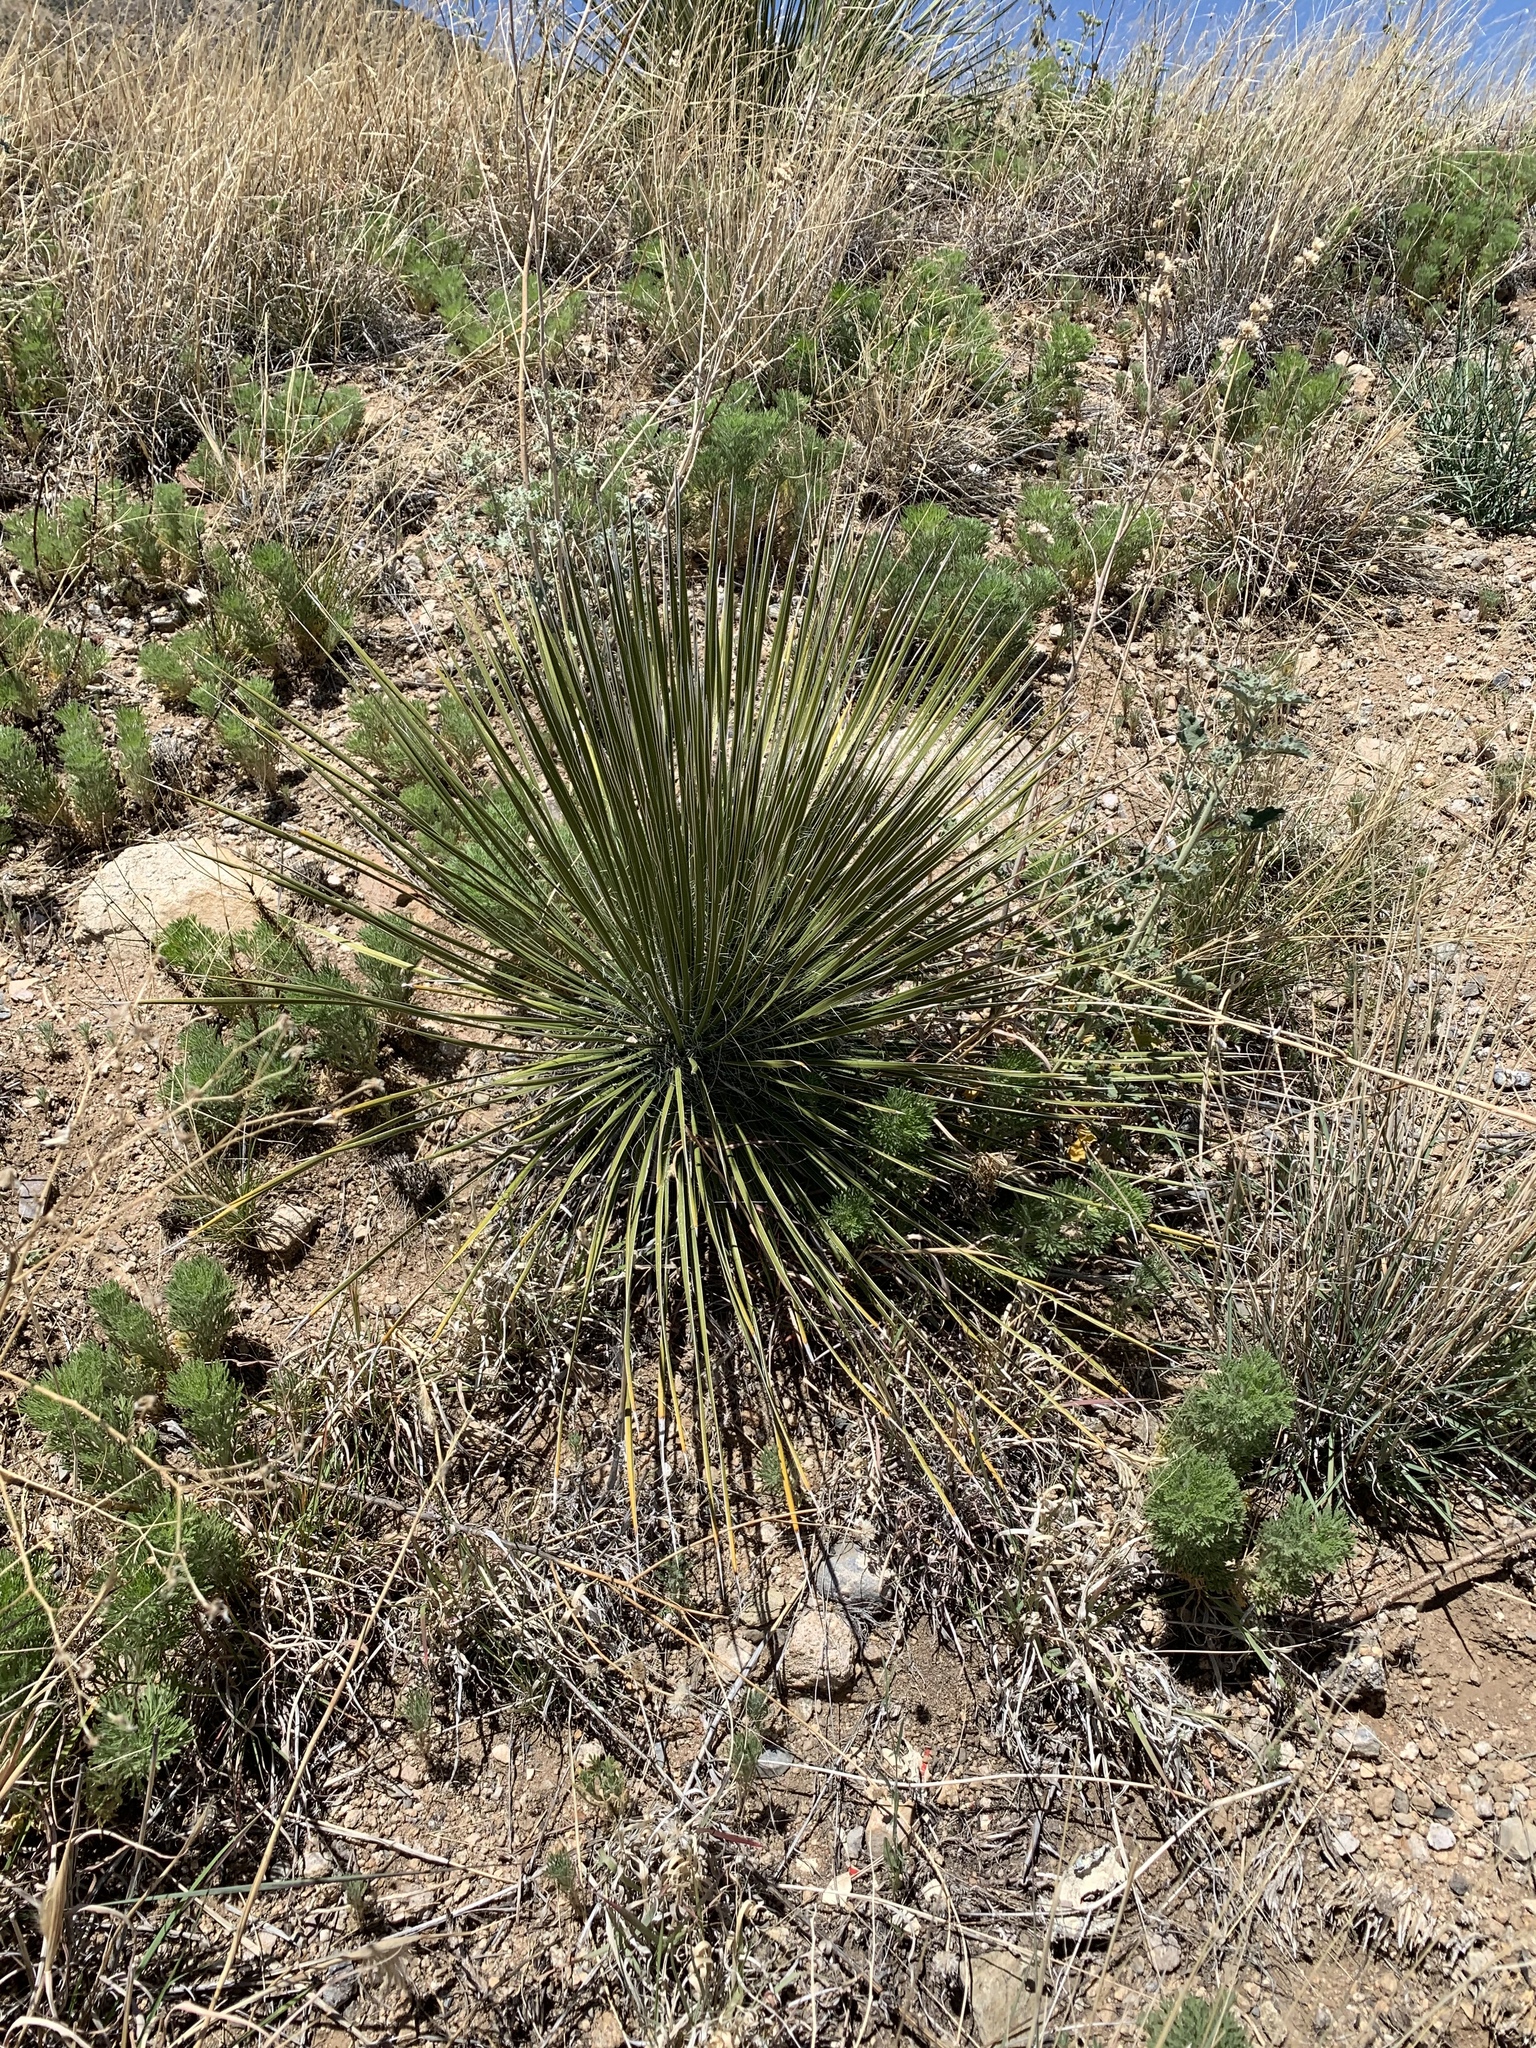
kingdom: Plantae
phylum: Tracheophyta
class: Liliopsida
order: Asparagales
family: Asparagaceae
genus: Yucca
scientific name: Yucca elata
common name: Palmella
